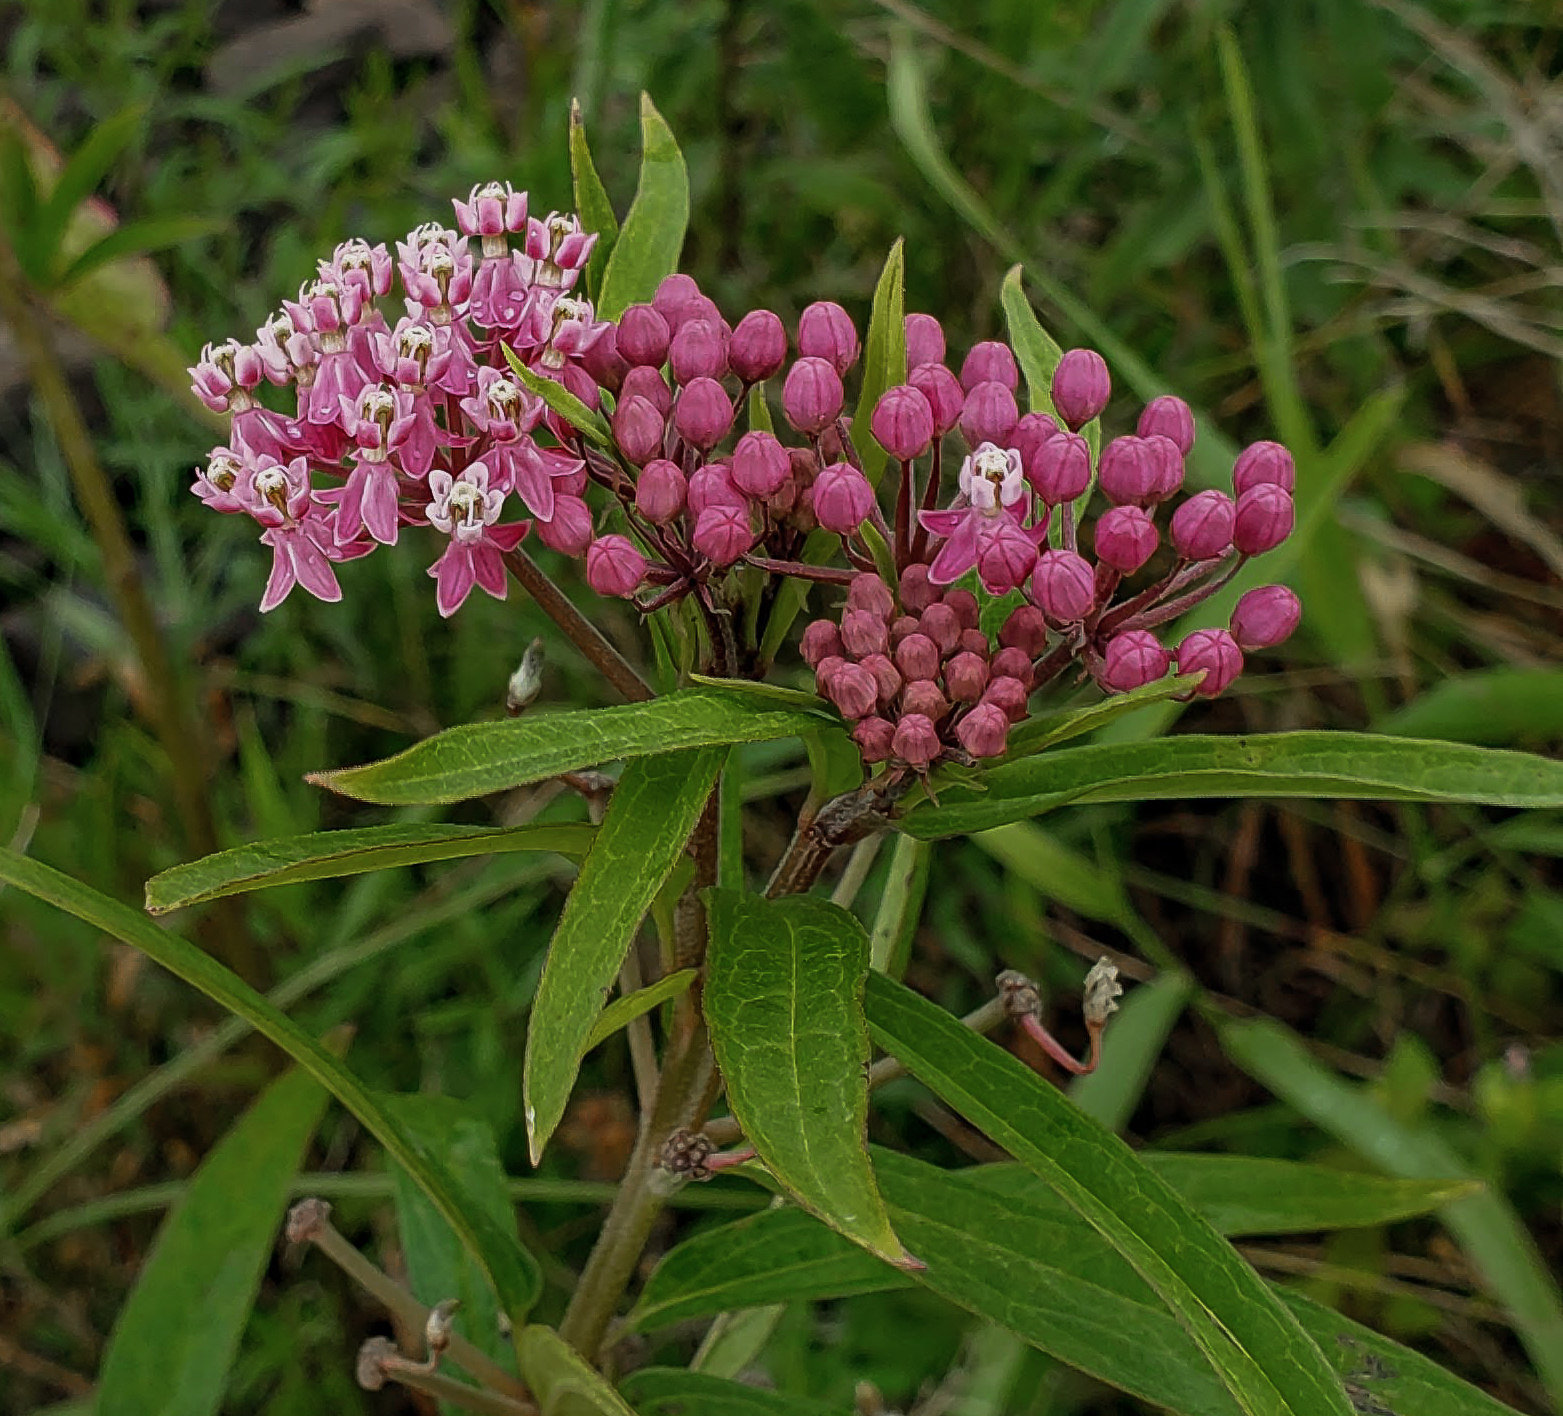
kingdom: Plantae
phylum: Tracheophyta
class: Magnoliopsida
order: Gentianales
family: Apocynaceae
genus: Asclepias
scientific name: Asclepias incarnata
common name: Swamp milkweed
